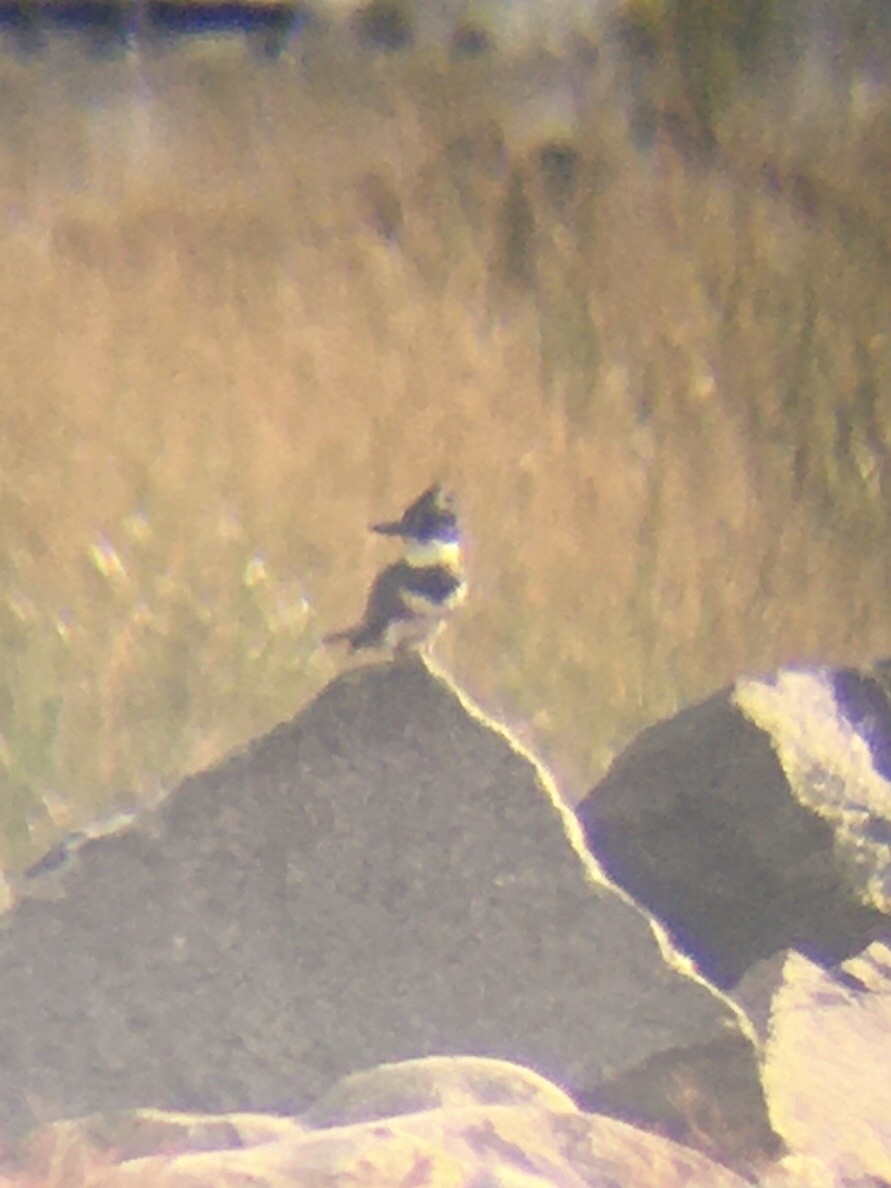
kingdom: Animalia
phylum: Chordata
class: Aves
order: Coraciiformes
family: Alcedinidae
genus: Megaceryle
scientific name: Megaceryle alcyon
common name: Belted kingfisher
